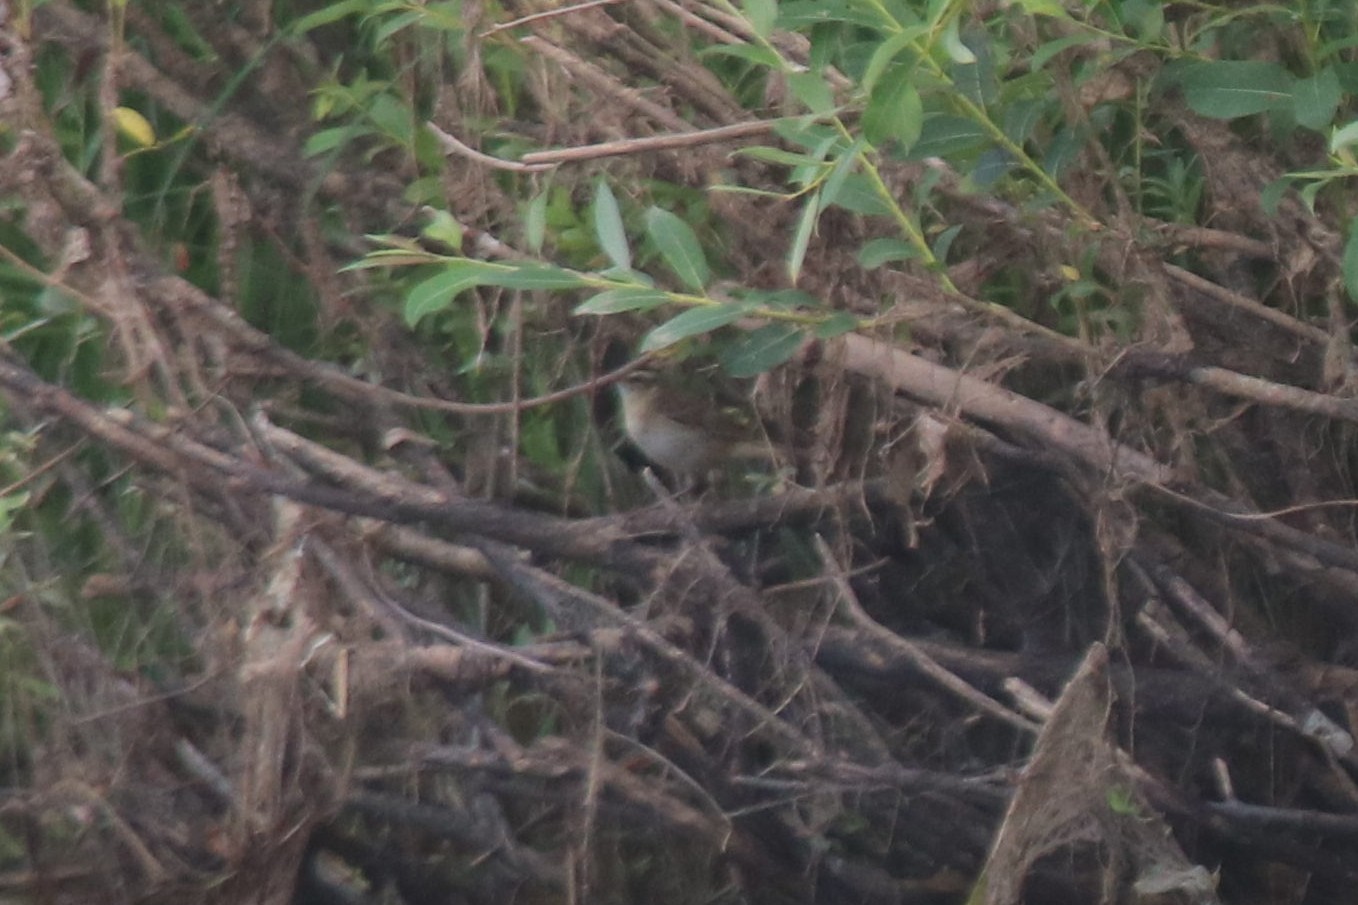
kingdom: Animalia
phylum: Chordata
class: Aves
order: Passeriformes
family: Acrocephalidae
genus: Acrocephalus
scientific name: Acrocephalus schoenobaenus
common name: Sedge warbler
